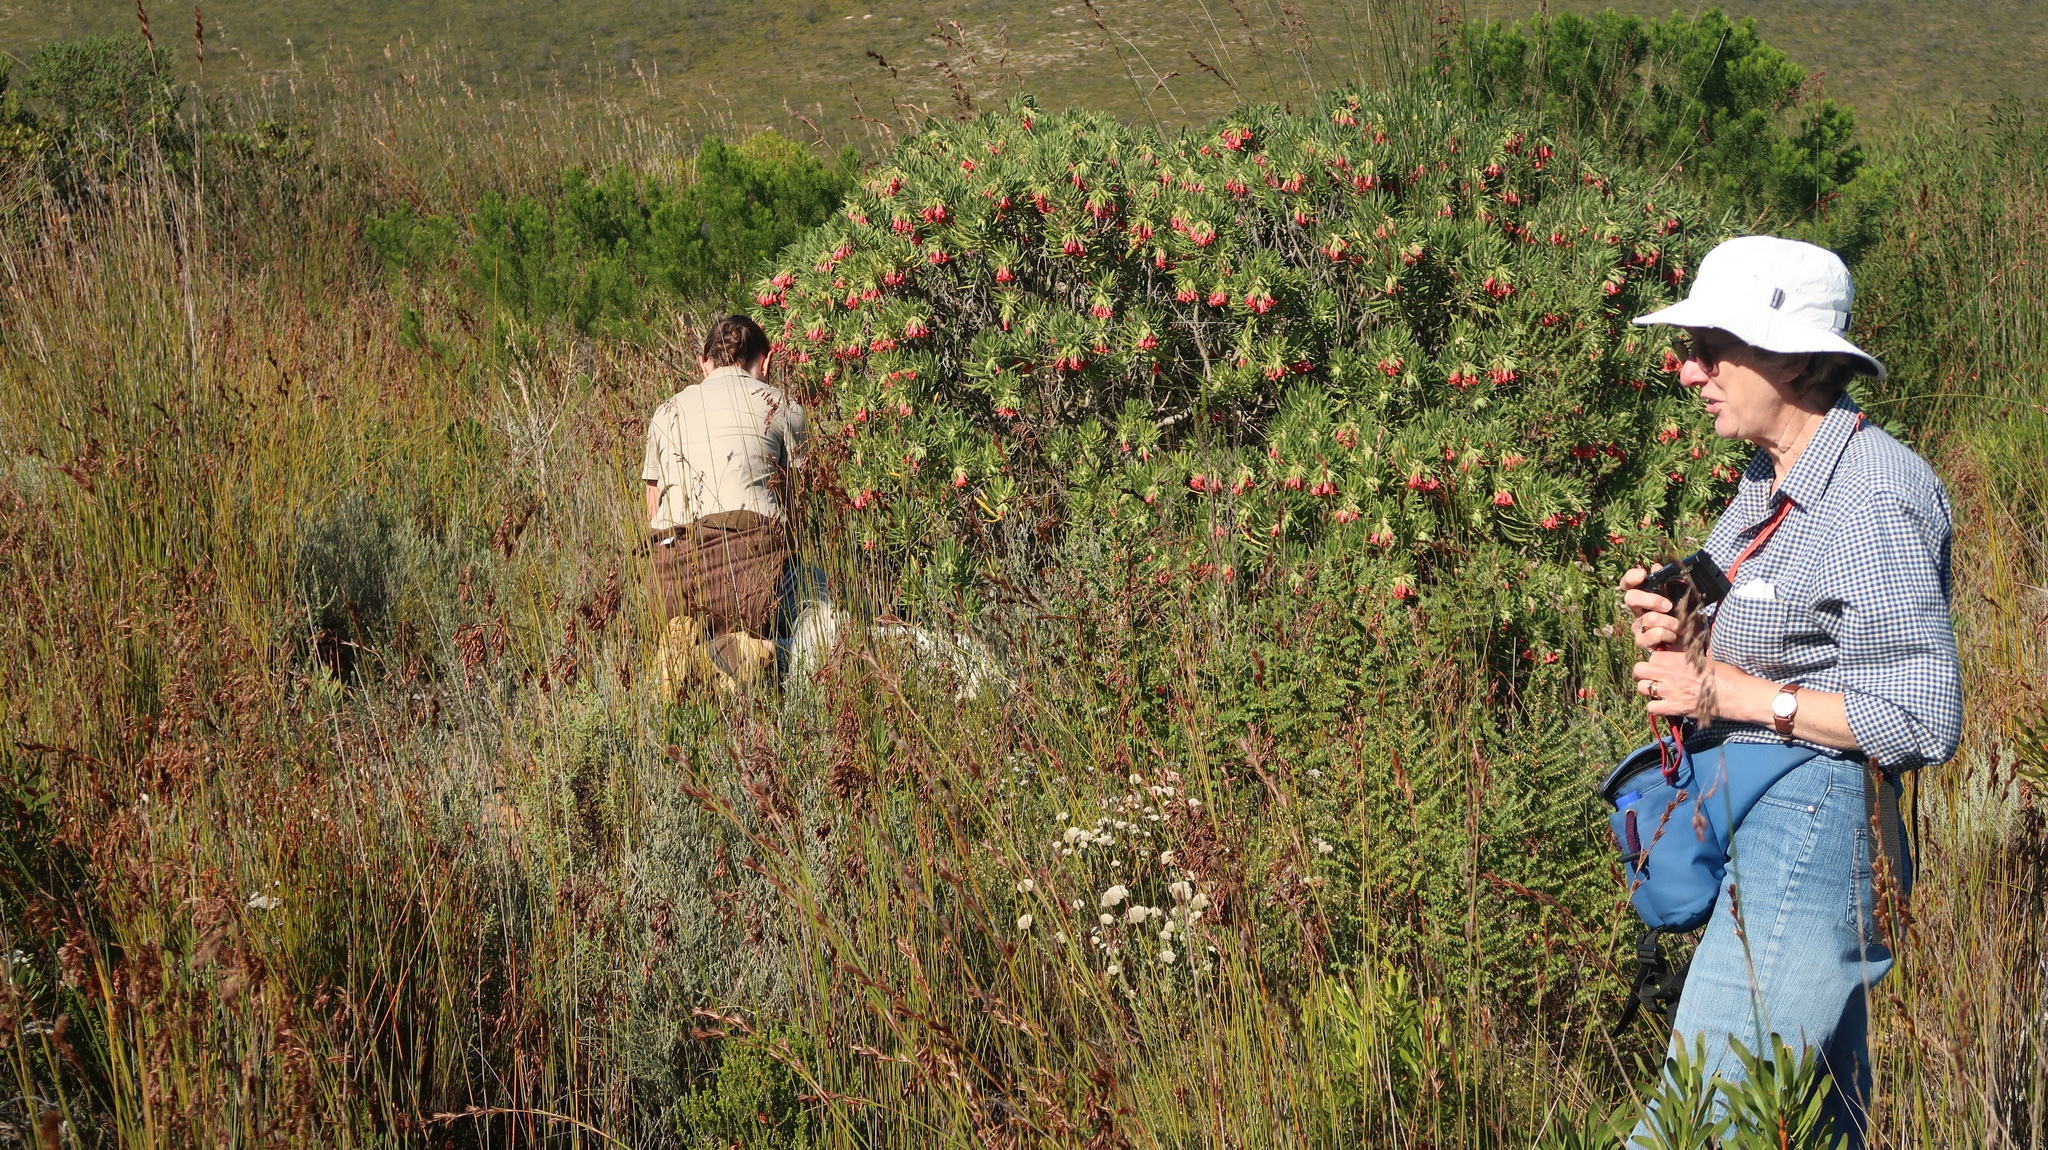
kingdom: Plantae
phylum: Tracheophyta
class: Magnoliopsida
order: Boraginales
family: Boraginaceae
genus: Lobostemon
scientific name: Lobostemon belliformis
